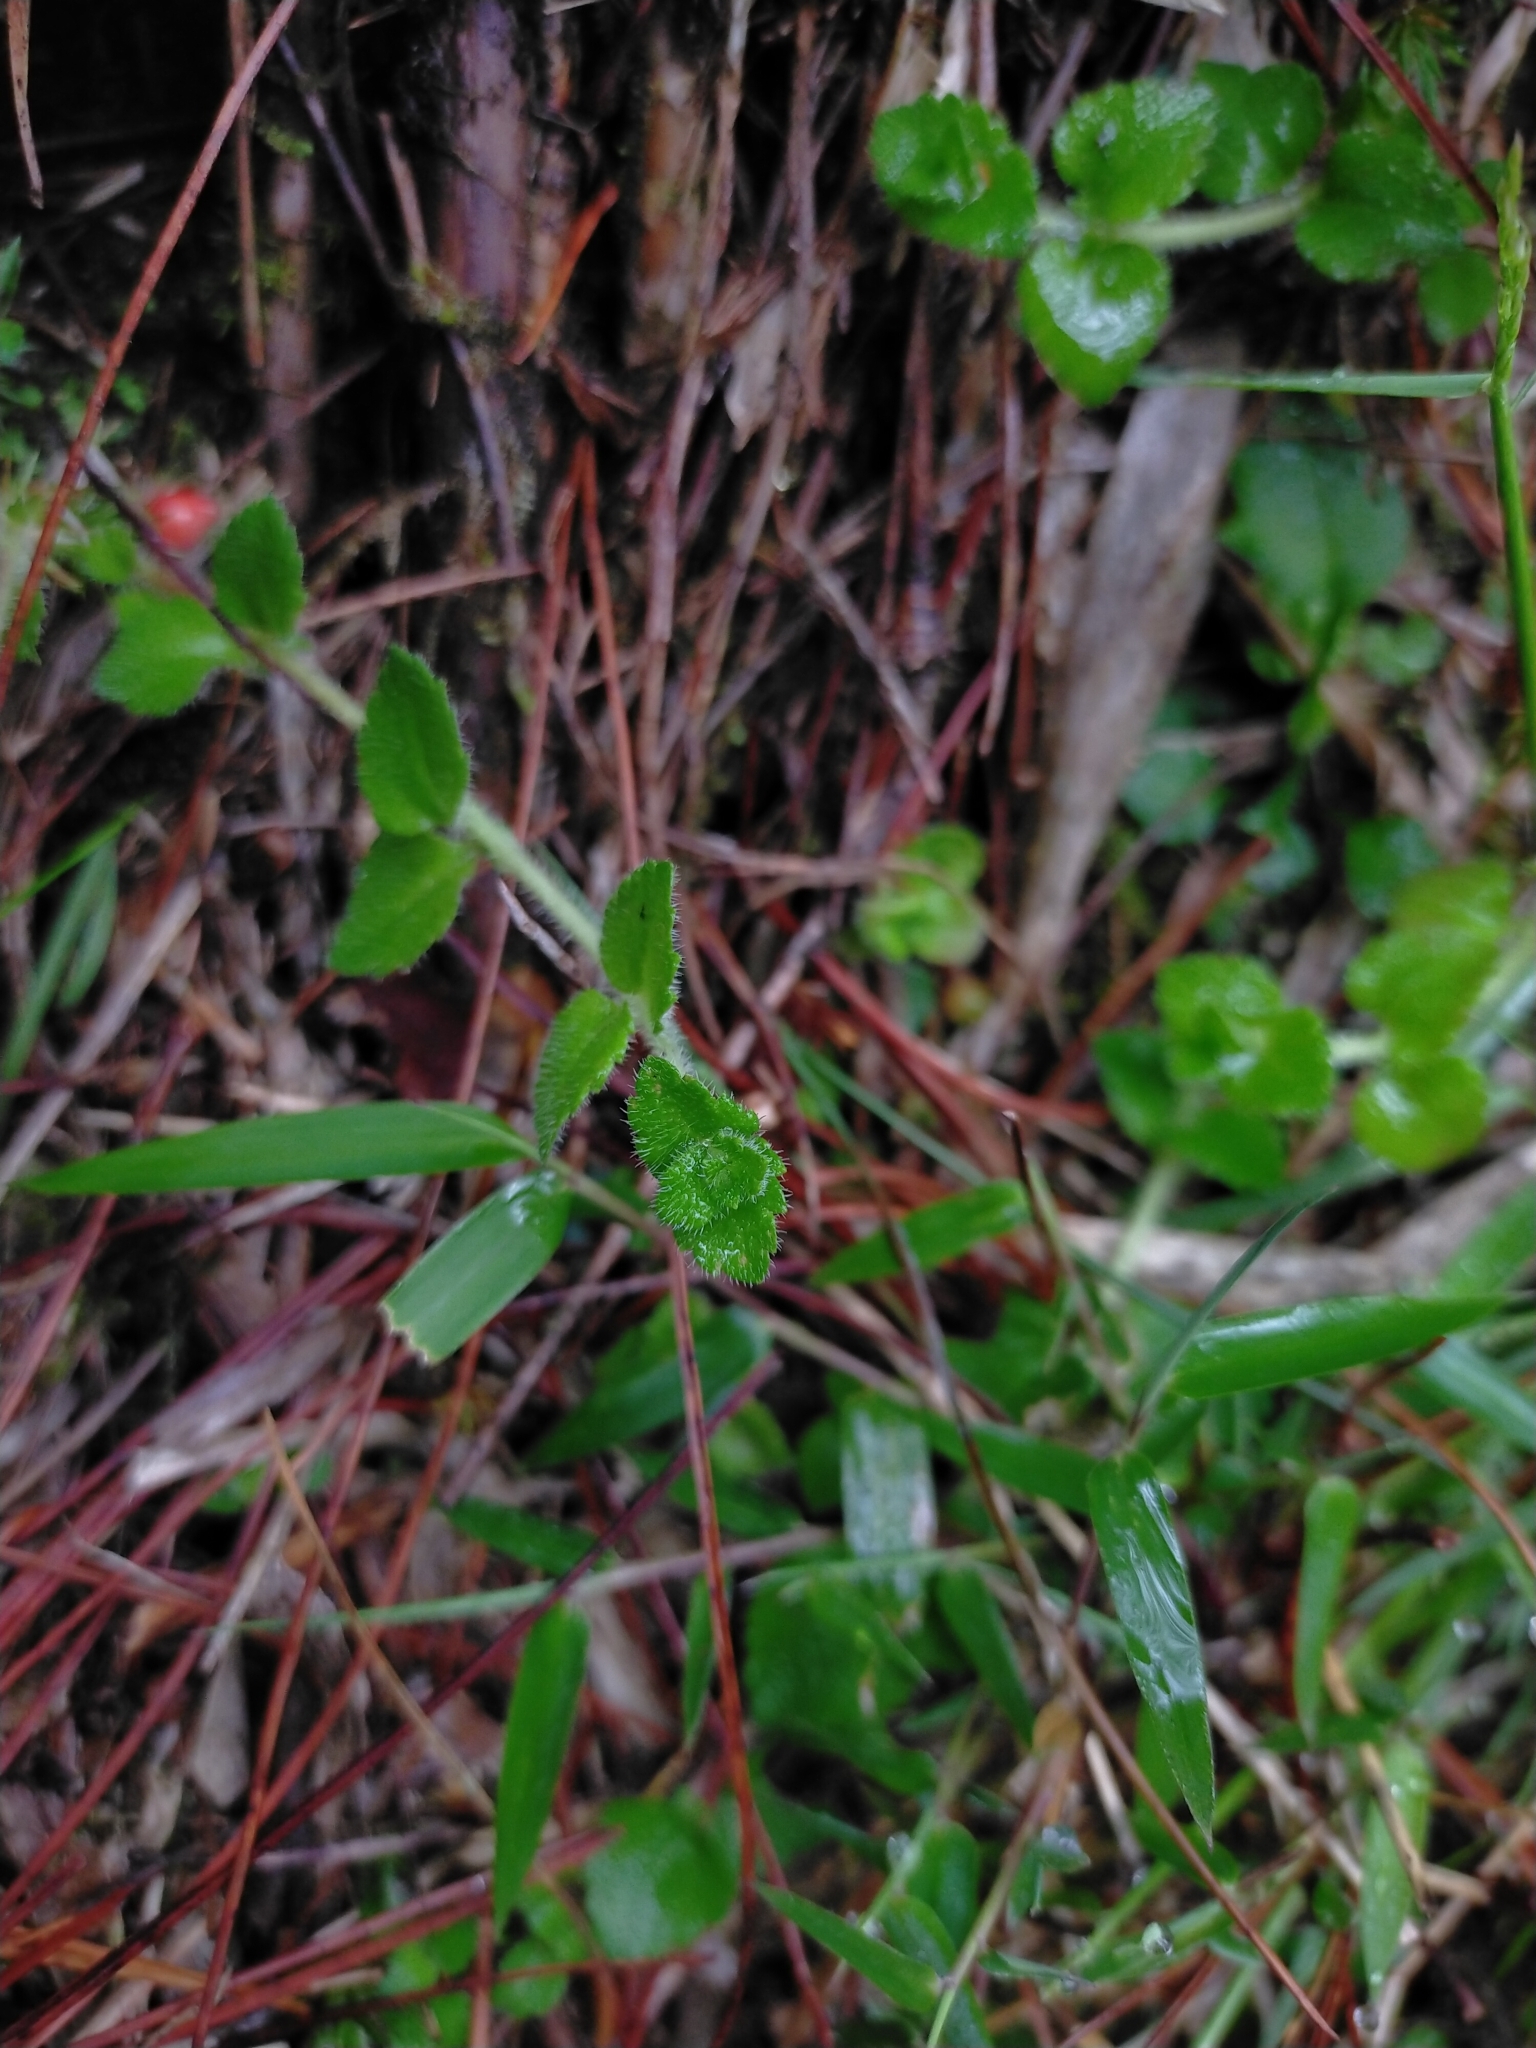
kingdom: Plantae
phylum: Tracheophyta
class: Magnoliopsida
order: Lamiales
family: Plantaginaceae
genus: Hemiphragma
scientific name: Hemiphragma heterophyllum
